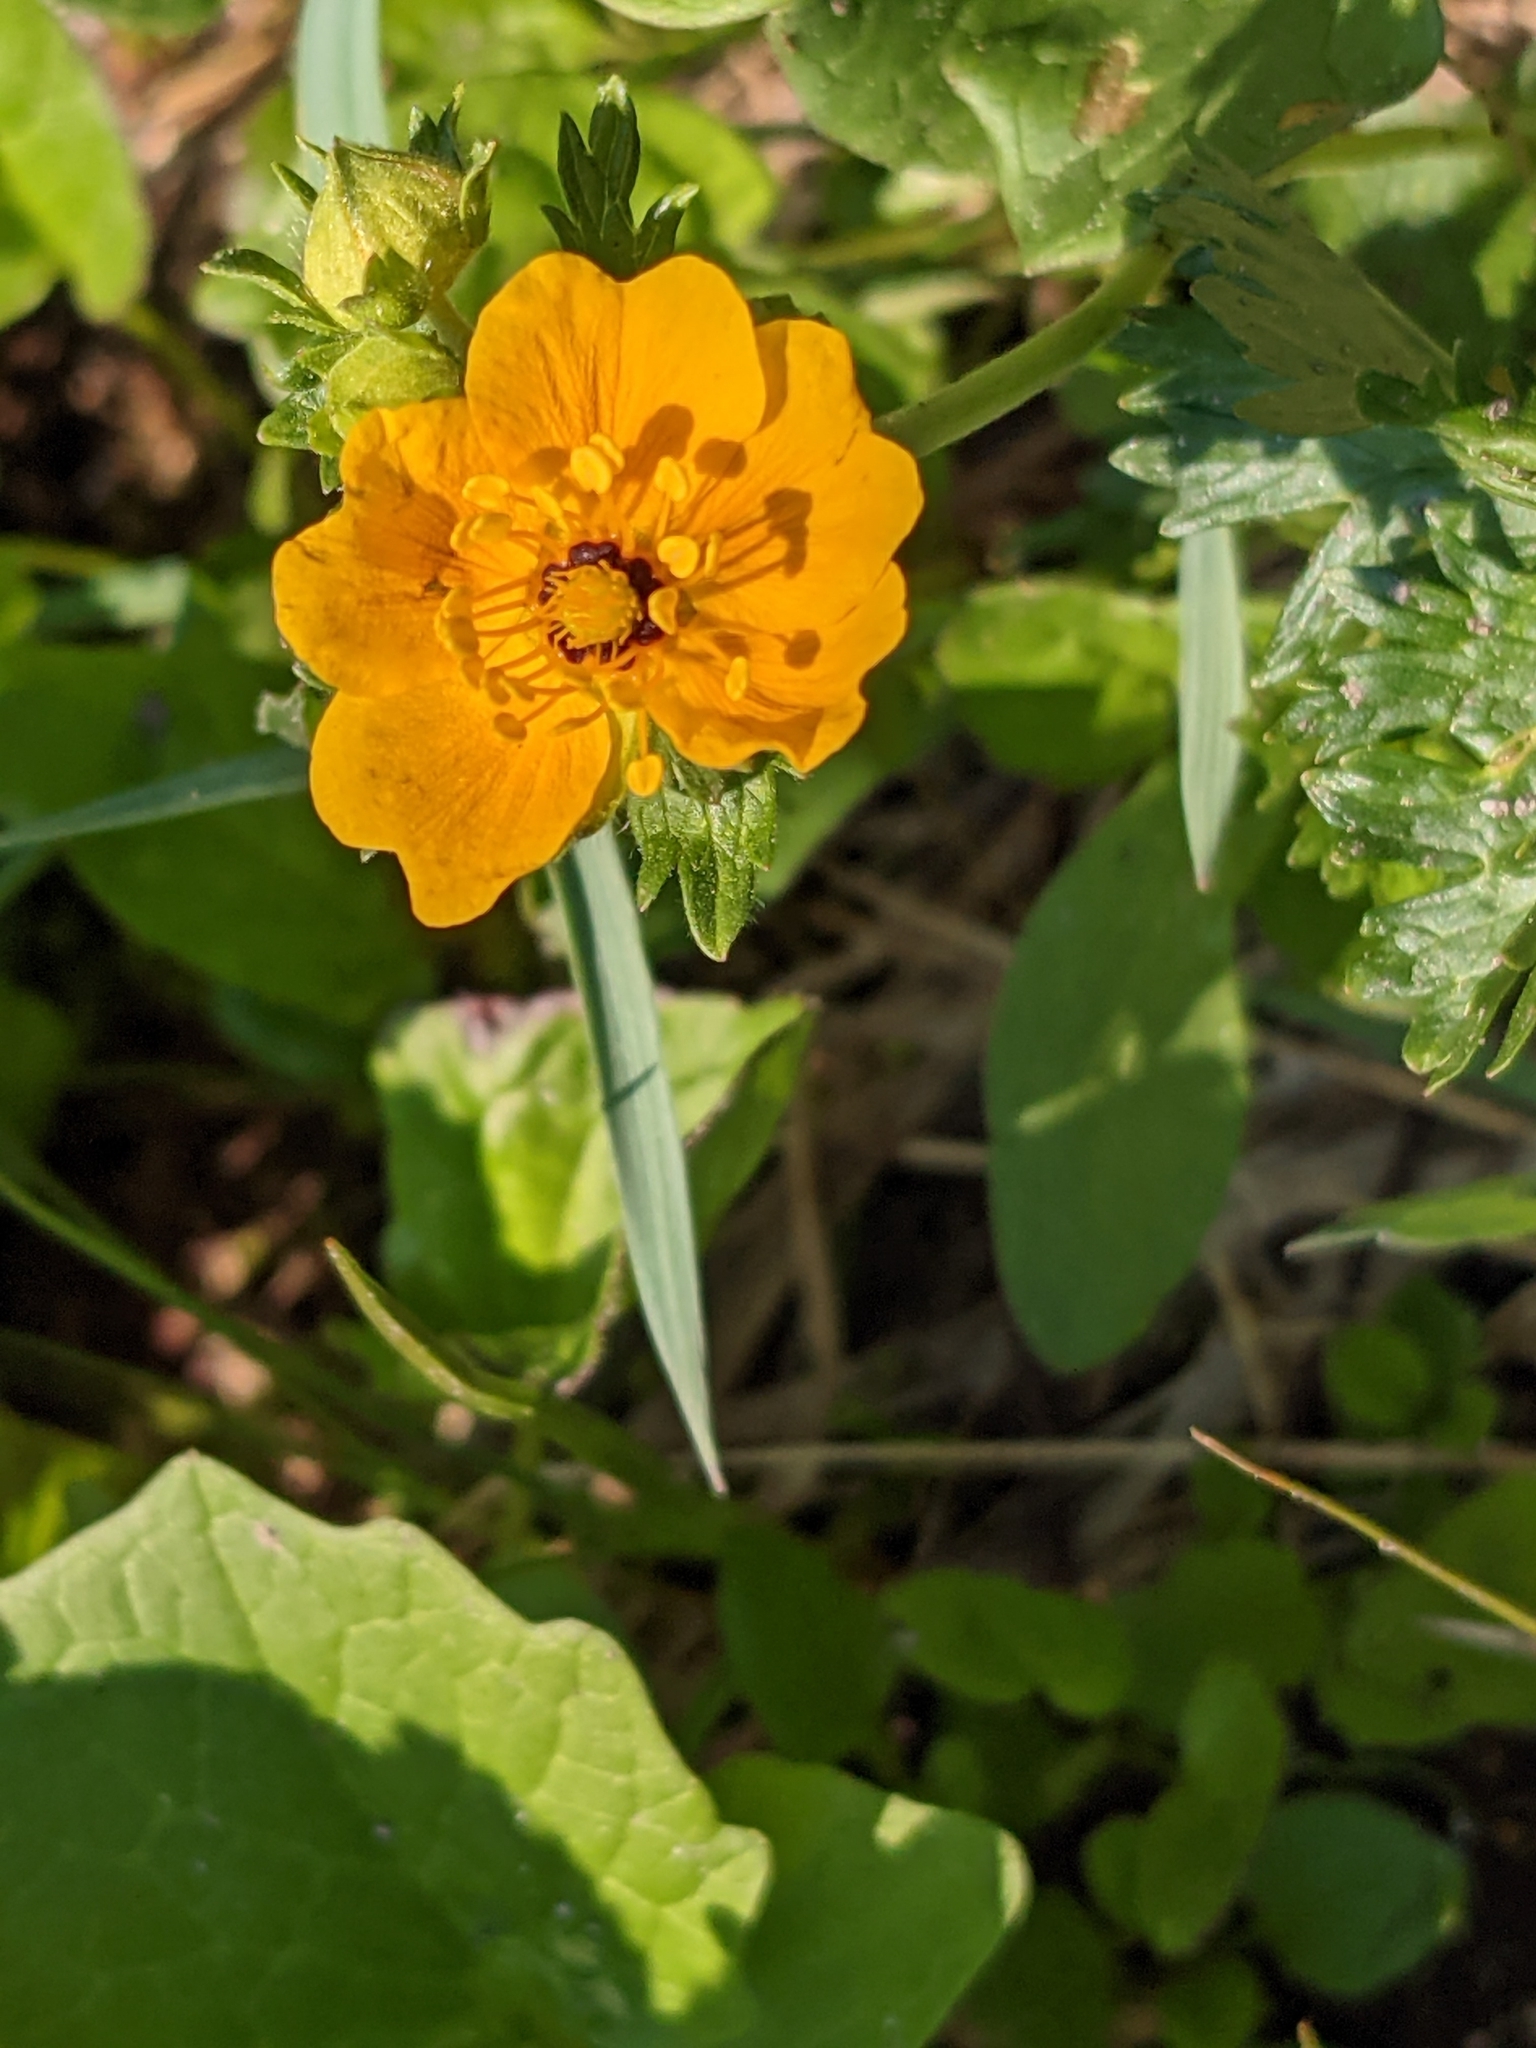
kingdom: Plantae
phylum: Tracheophyta
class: Magnoliopsida
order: Rosales
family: Rosaceae
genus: Potentilla
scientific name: Potentilla flabellifolia
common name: Mount rainier cinquefoil
